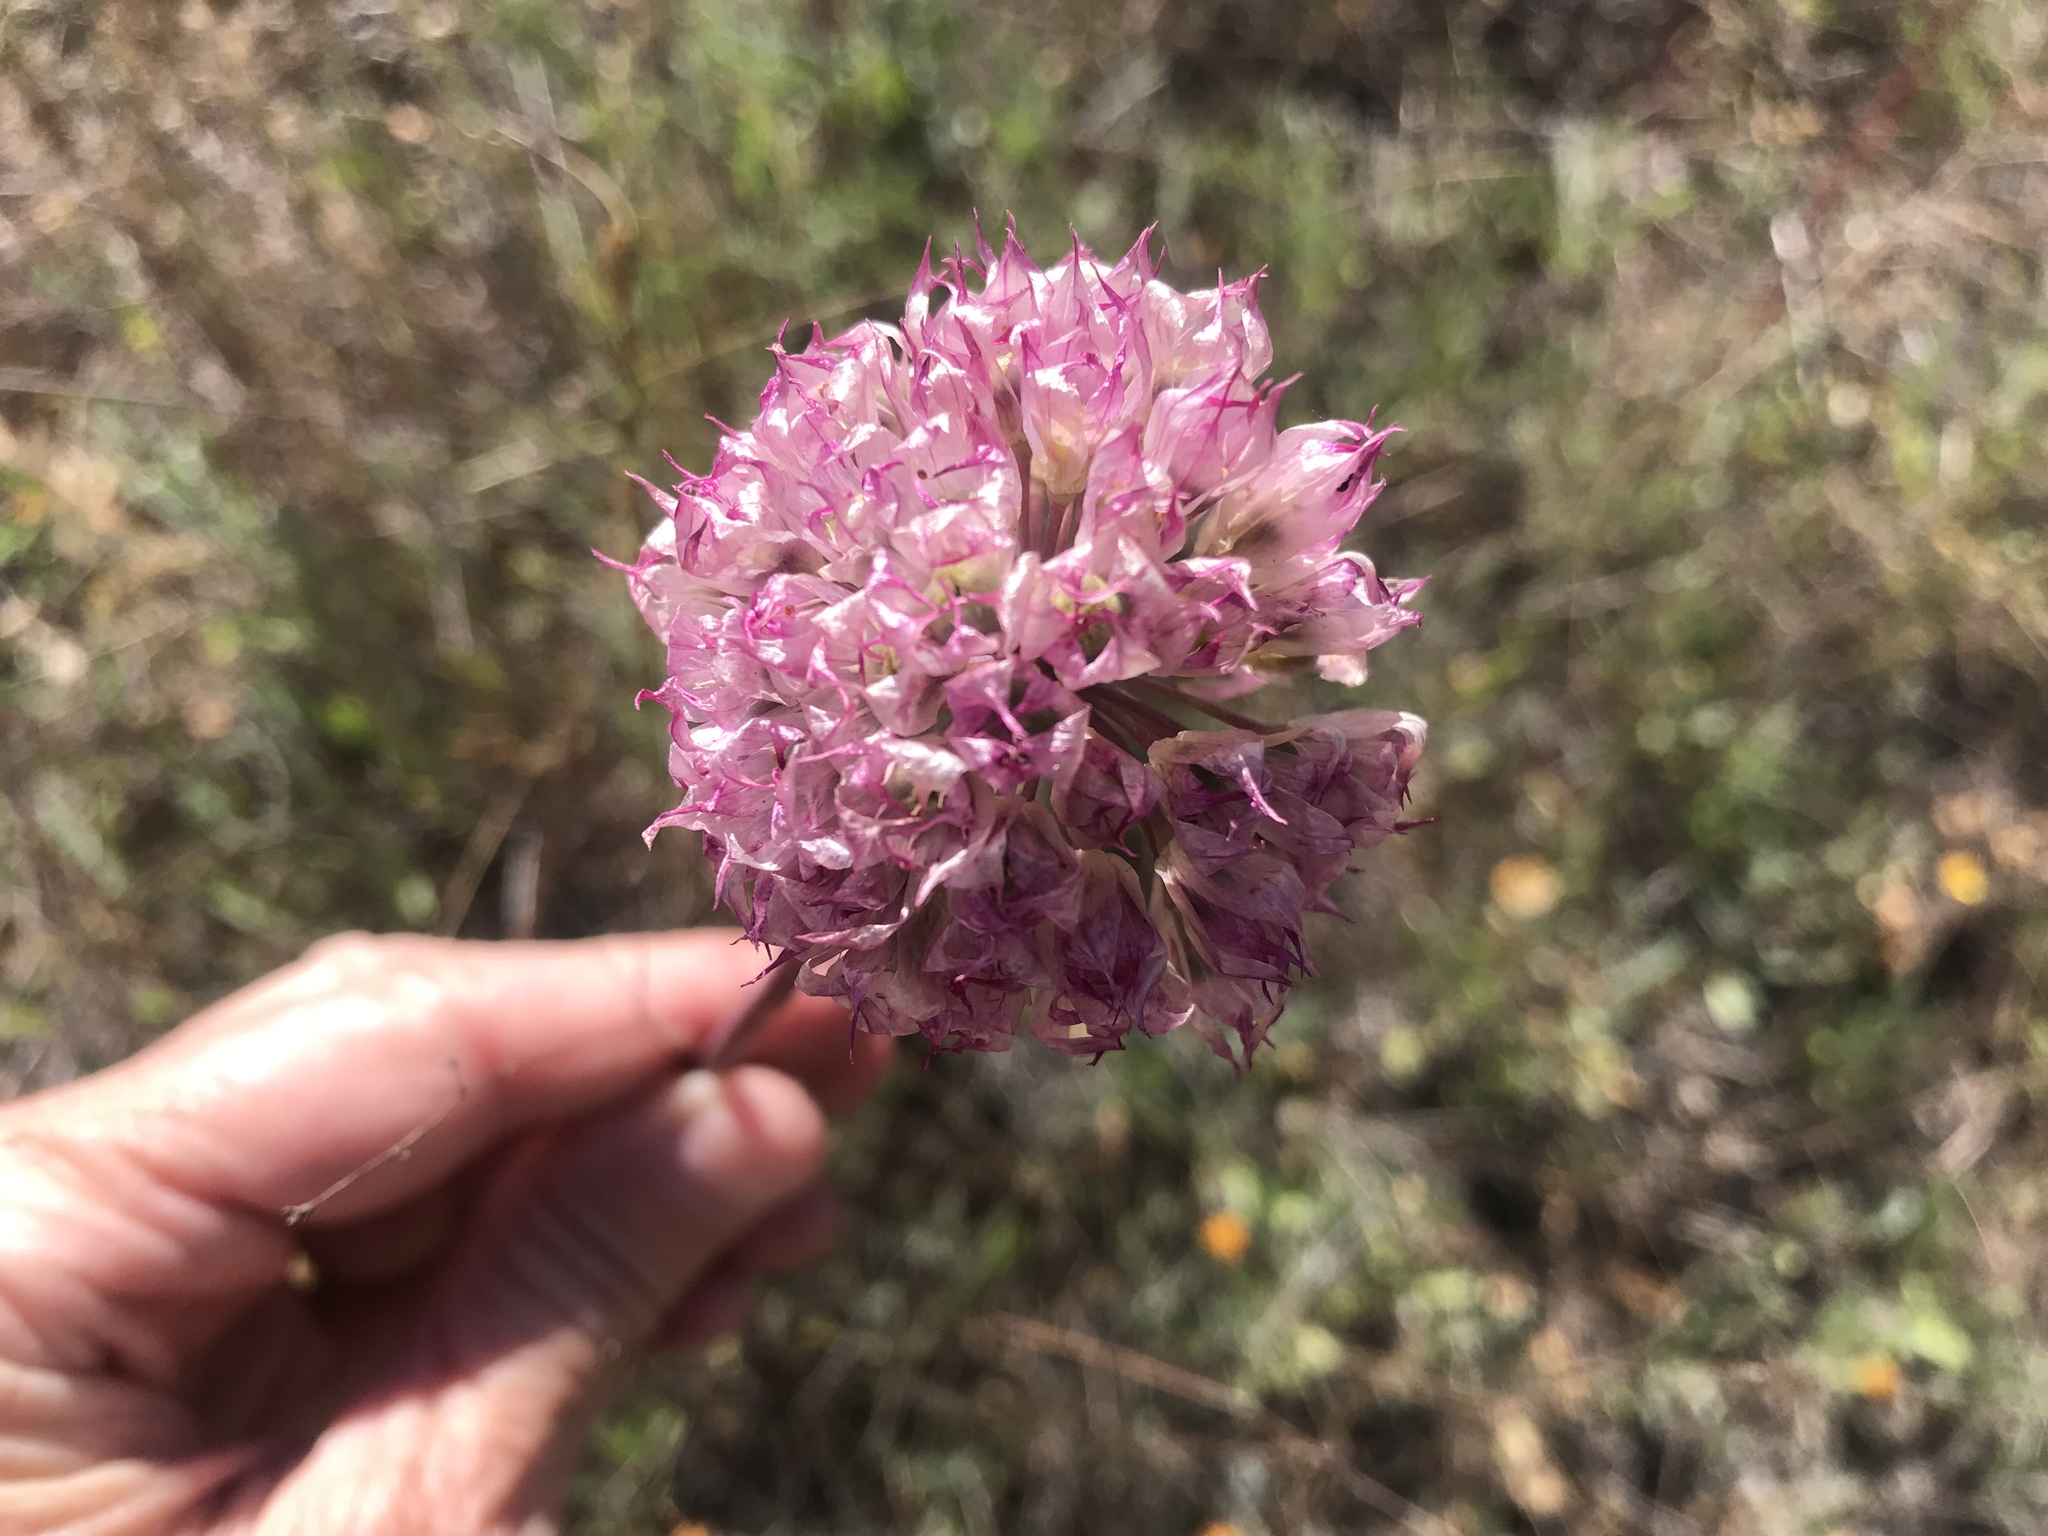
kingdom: Plantae
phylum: Tracheophyta
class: Liliopsida
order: Asparagales
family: Amaryllidaceae
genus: Allium
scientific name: Allium serra
